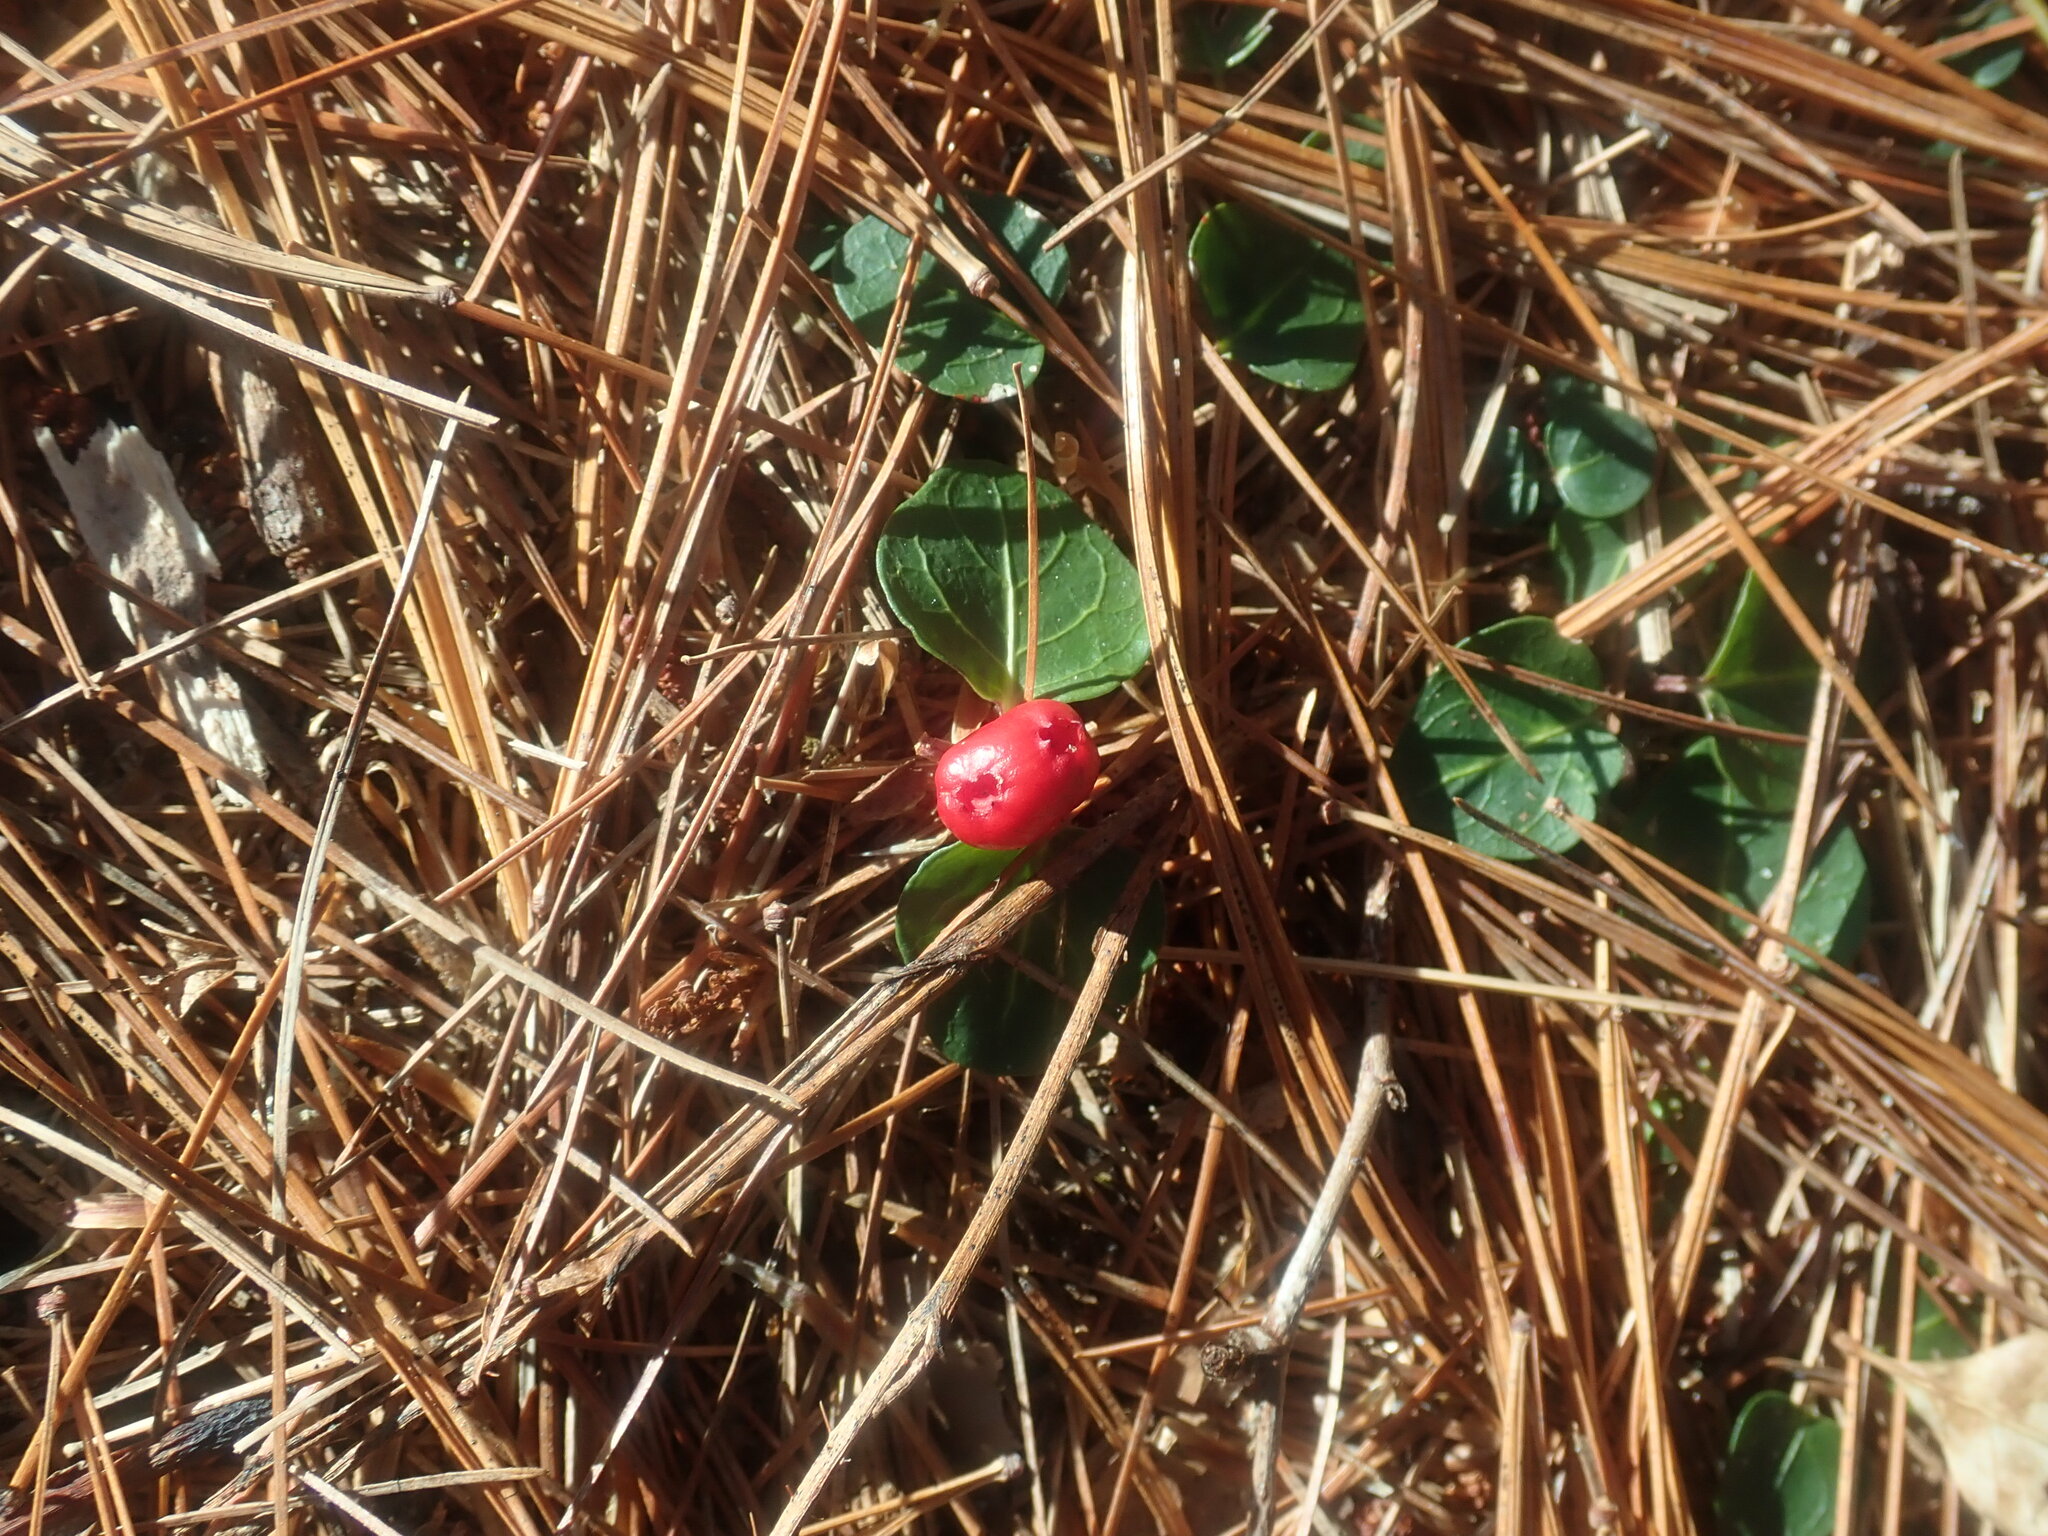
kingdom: Plantae
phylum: Tracheophyta
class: Magnoliopsida
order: Gentianales
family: Rubiaceae
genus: Mitchella
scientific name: Mitchella repens
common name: Partridge-berry
